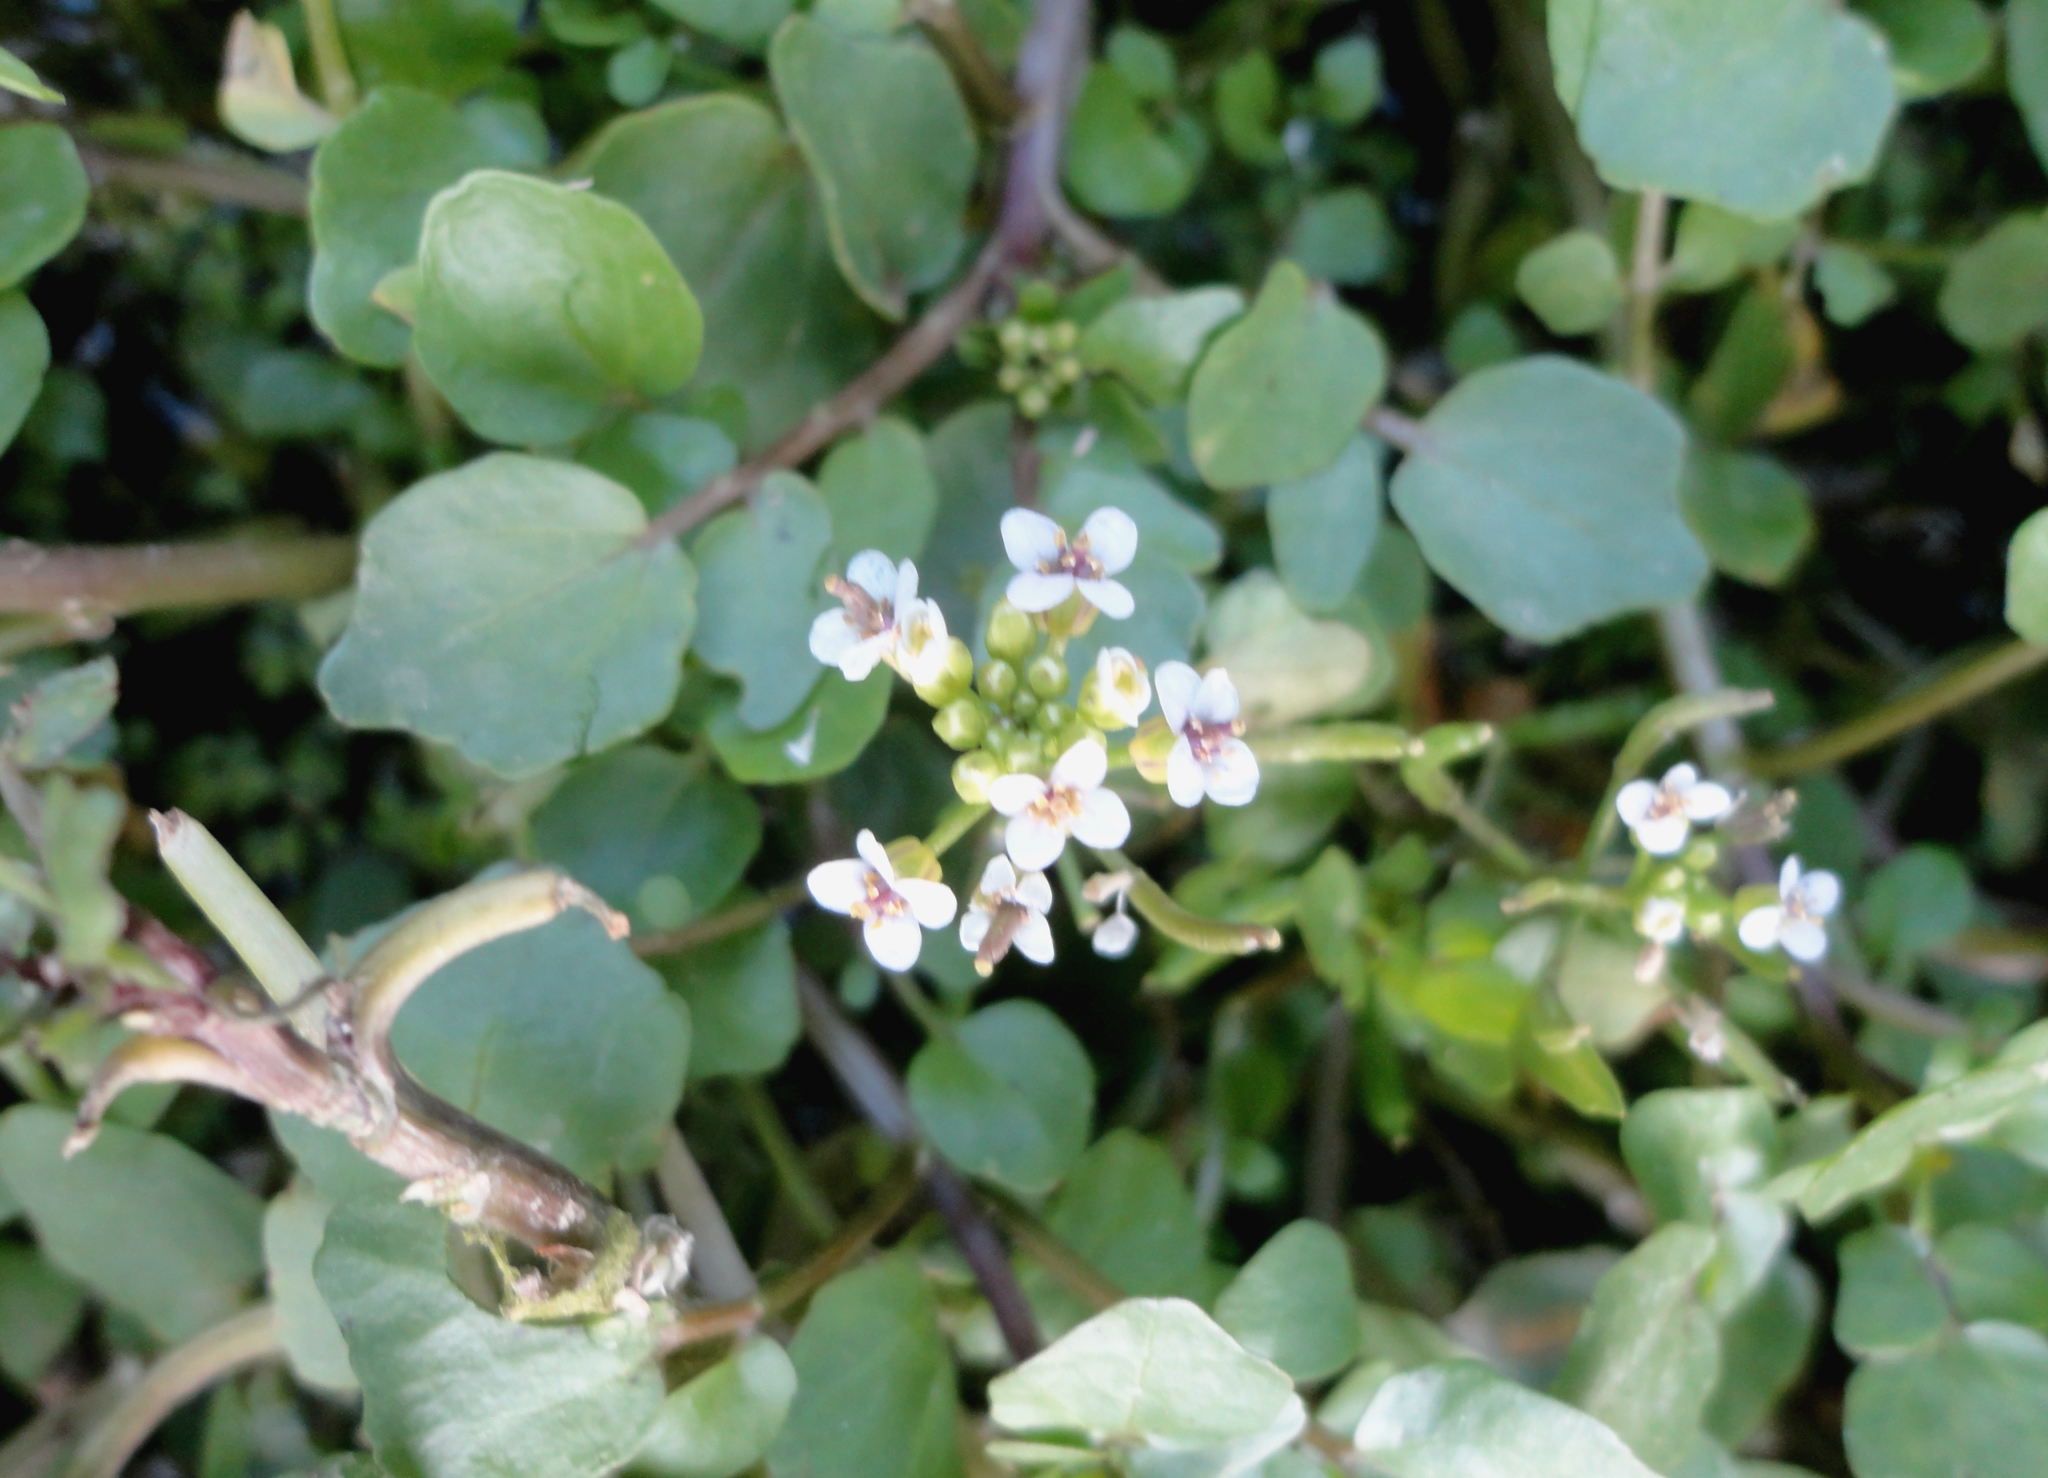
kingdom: Plantae
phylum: Tracheophyta
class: Magnoliopsida
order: Brassicales
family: Brassicaceae
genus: Nasturtium
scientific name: Nasturtium officinale
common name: Watercress
